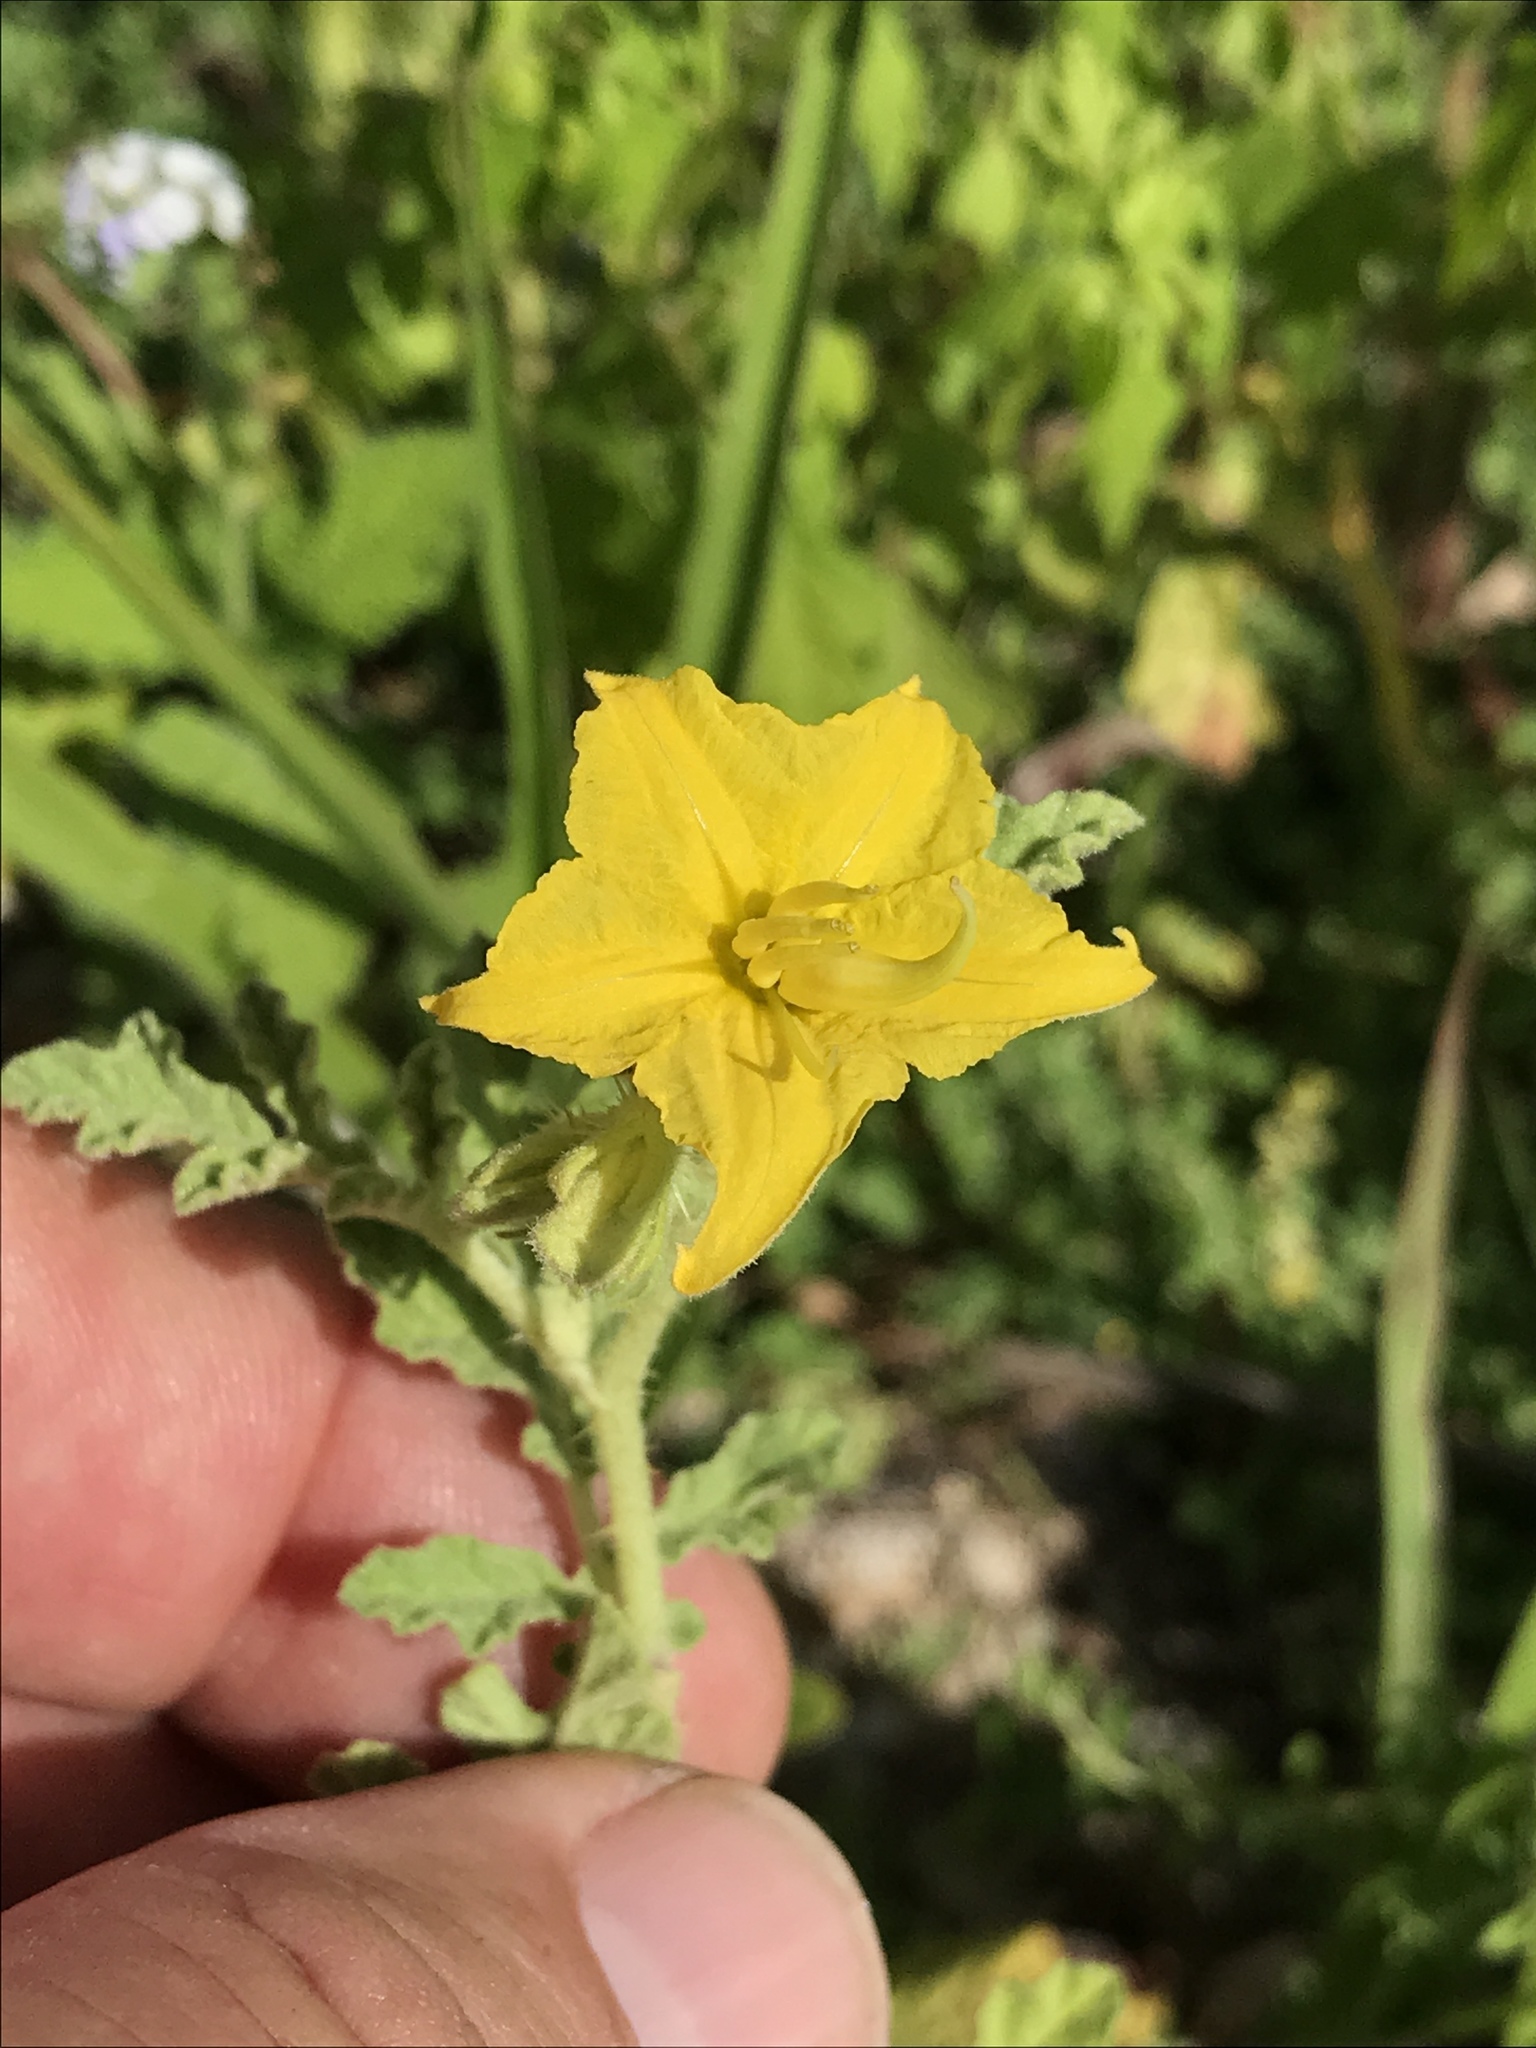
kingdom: Plantae
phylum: Tracheophyta
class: Magnoliopsida
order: Solanales
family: Solanaceae
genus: Solanum
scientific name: Solanum angustifolium
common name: Buffalobur nightshade
